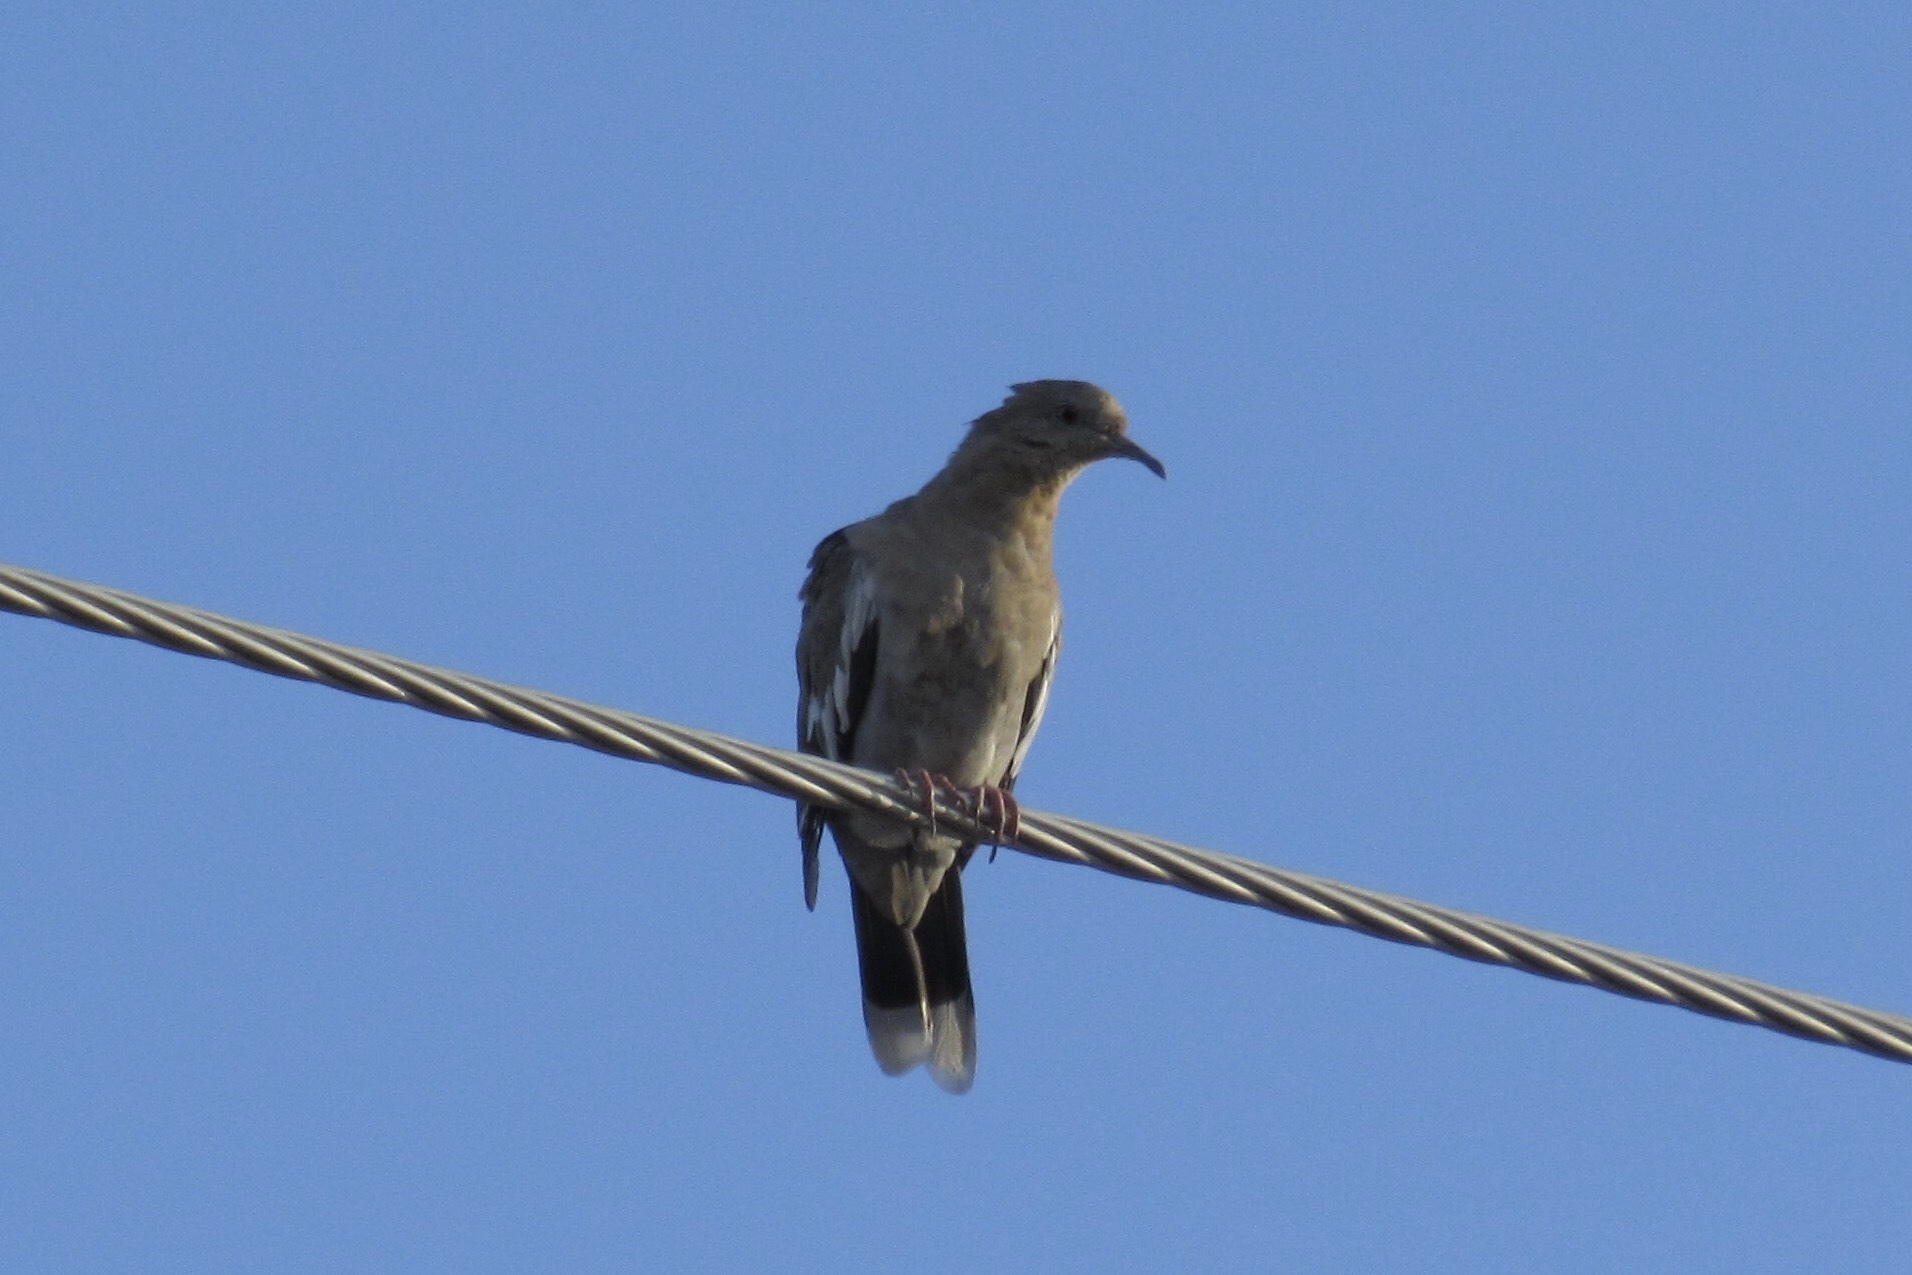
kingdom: Animalia
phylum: Chordata
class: Aves
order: Columbiformes
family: Columbidae
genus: Zenaida
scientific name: Zenaida asiatica
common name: White-winged dove
